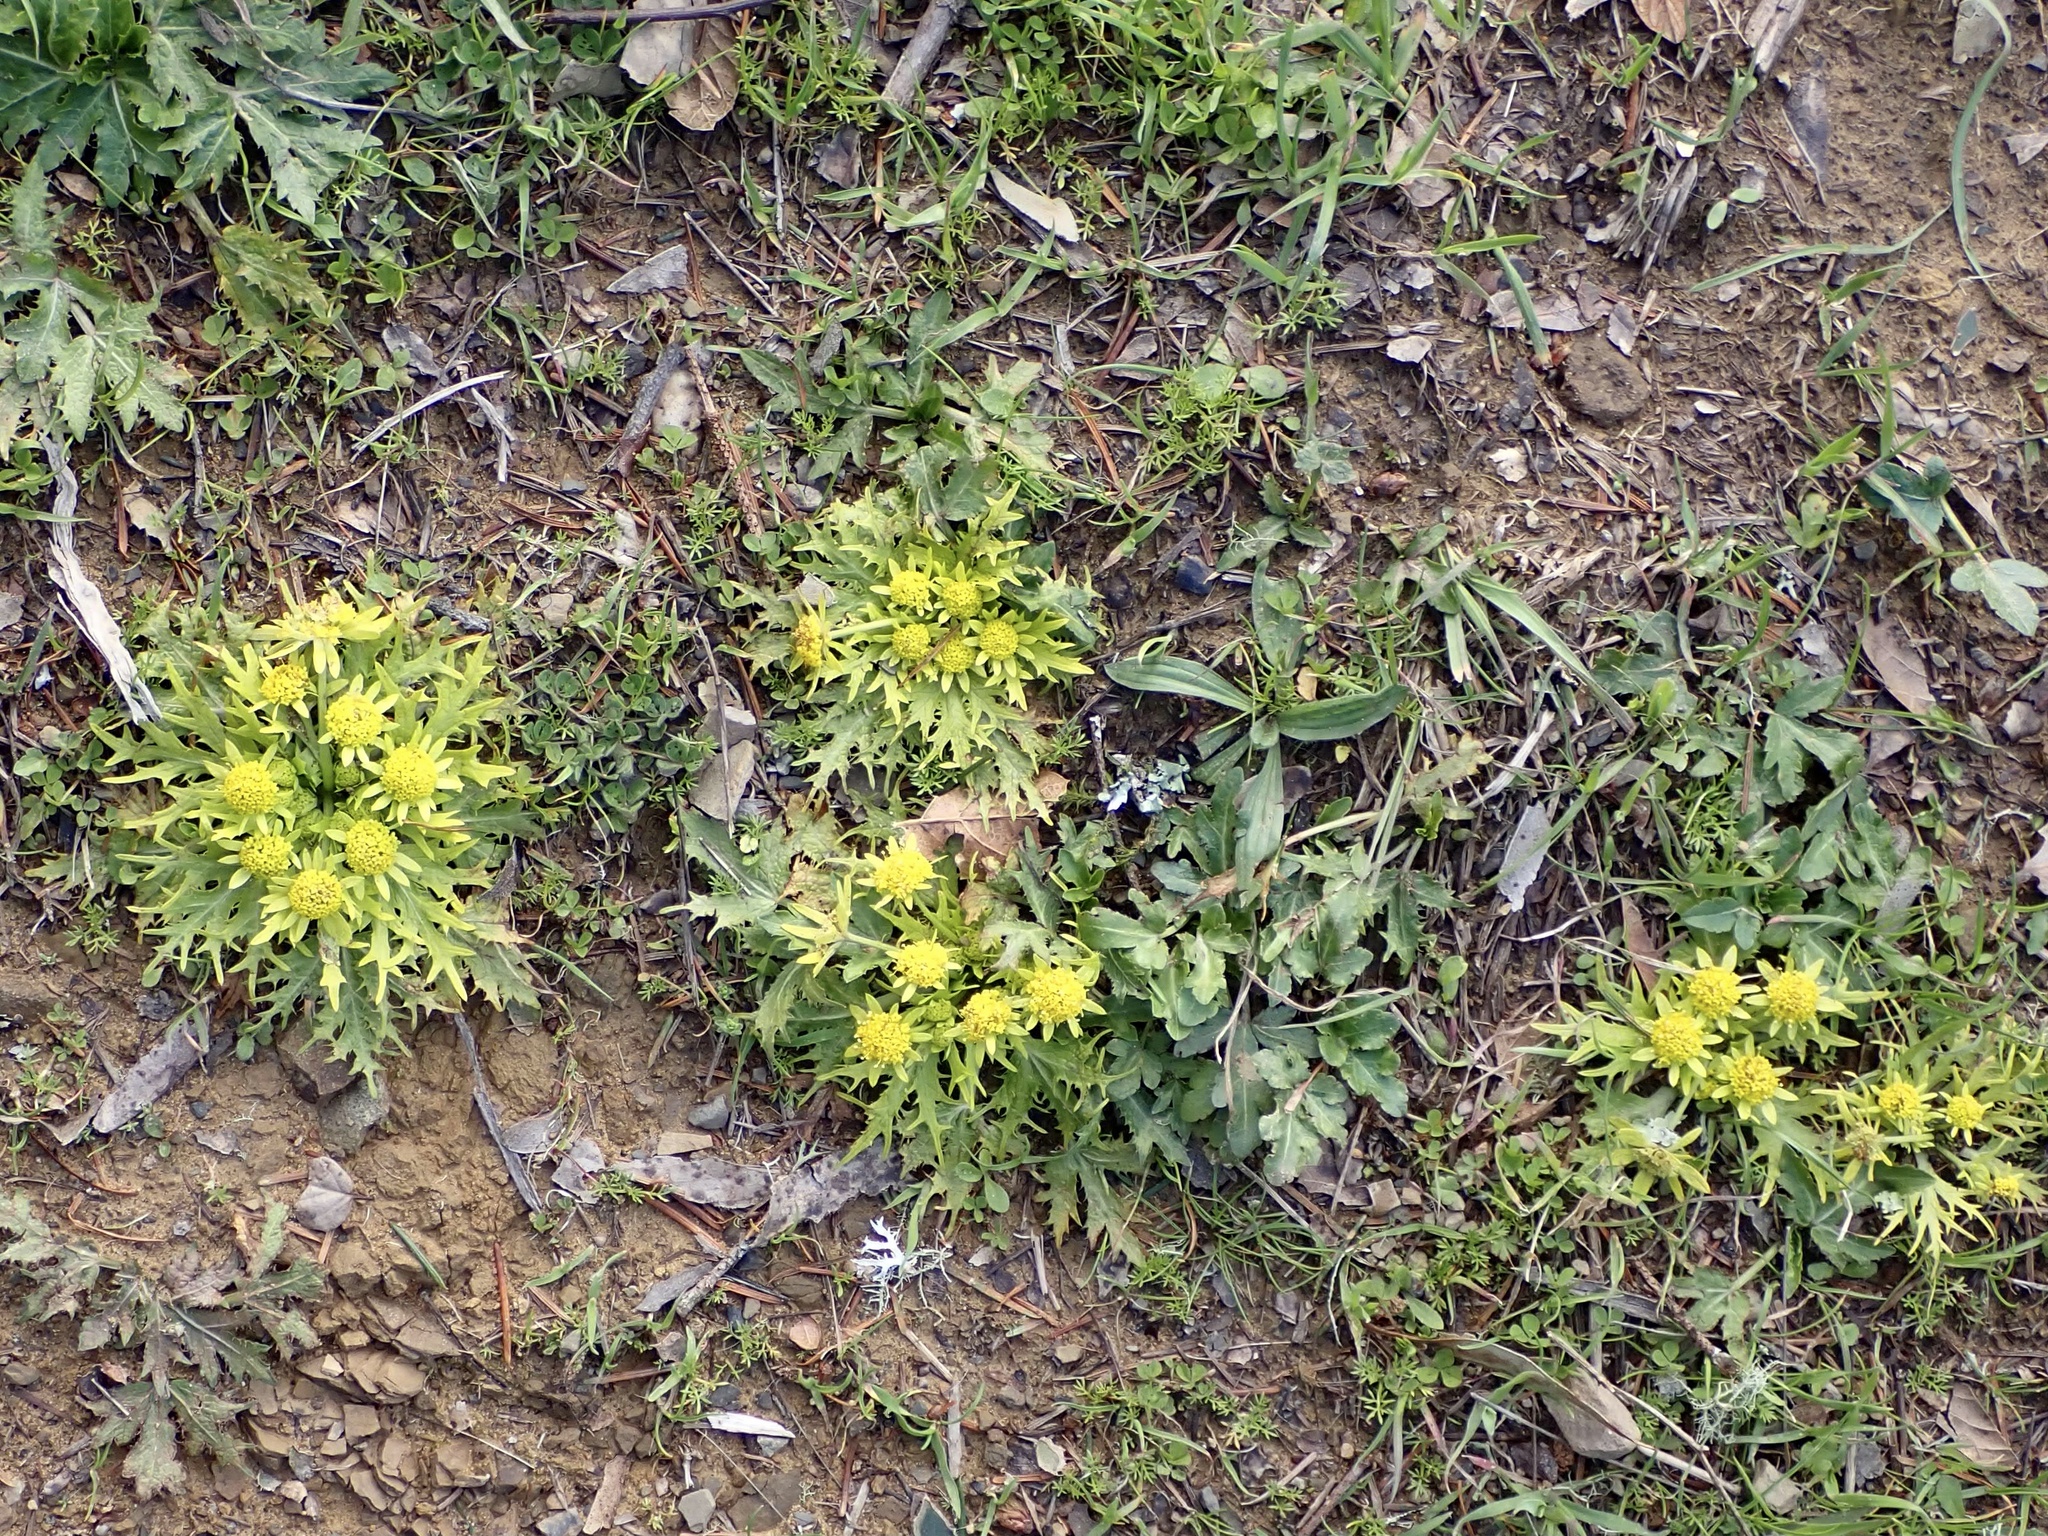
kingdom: Plantae
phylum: Tracheophyta
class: Magnoliopsida
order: Apiales
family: Apiaceae
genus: Sanicula
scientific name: Sanicula arctopoides
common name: Footsteps-of-spring
